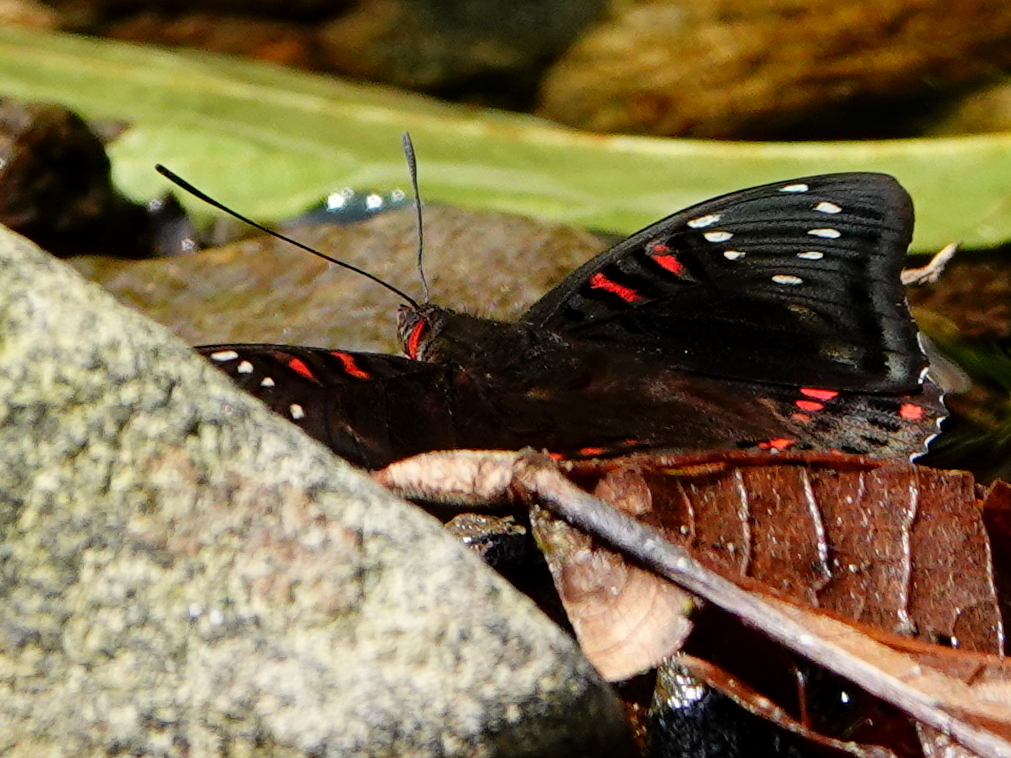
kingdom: Animalia
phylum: Arthropoda
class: Insecta
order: Lepidoptera
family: Nymphalidae
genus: Euthalia
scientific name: Euthalia lubentina
